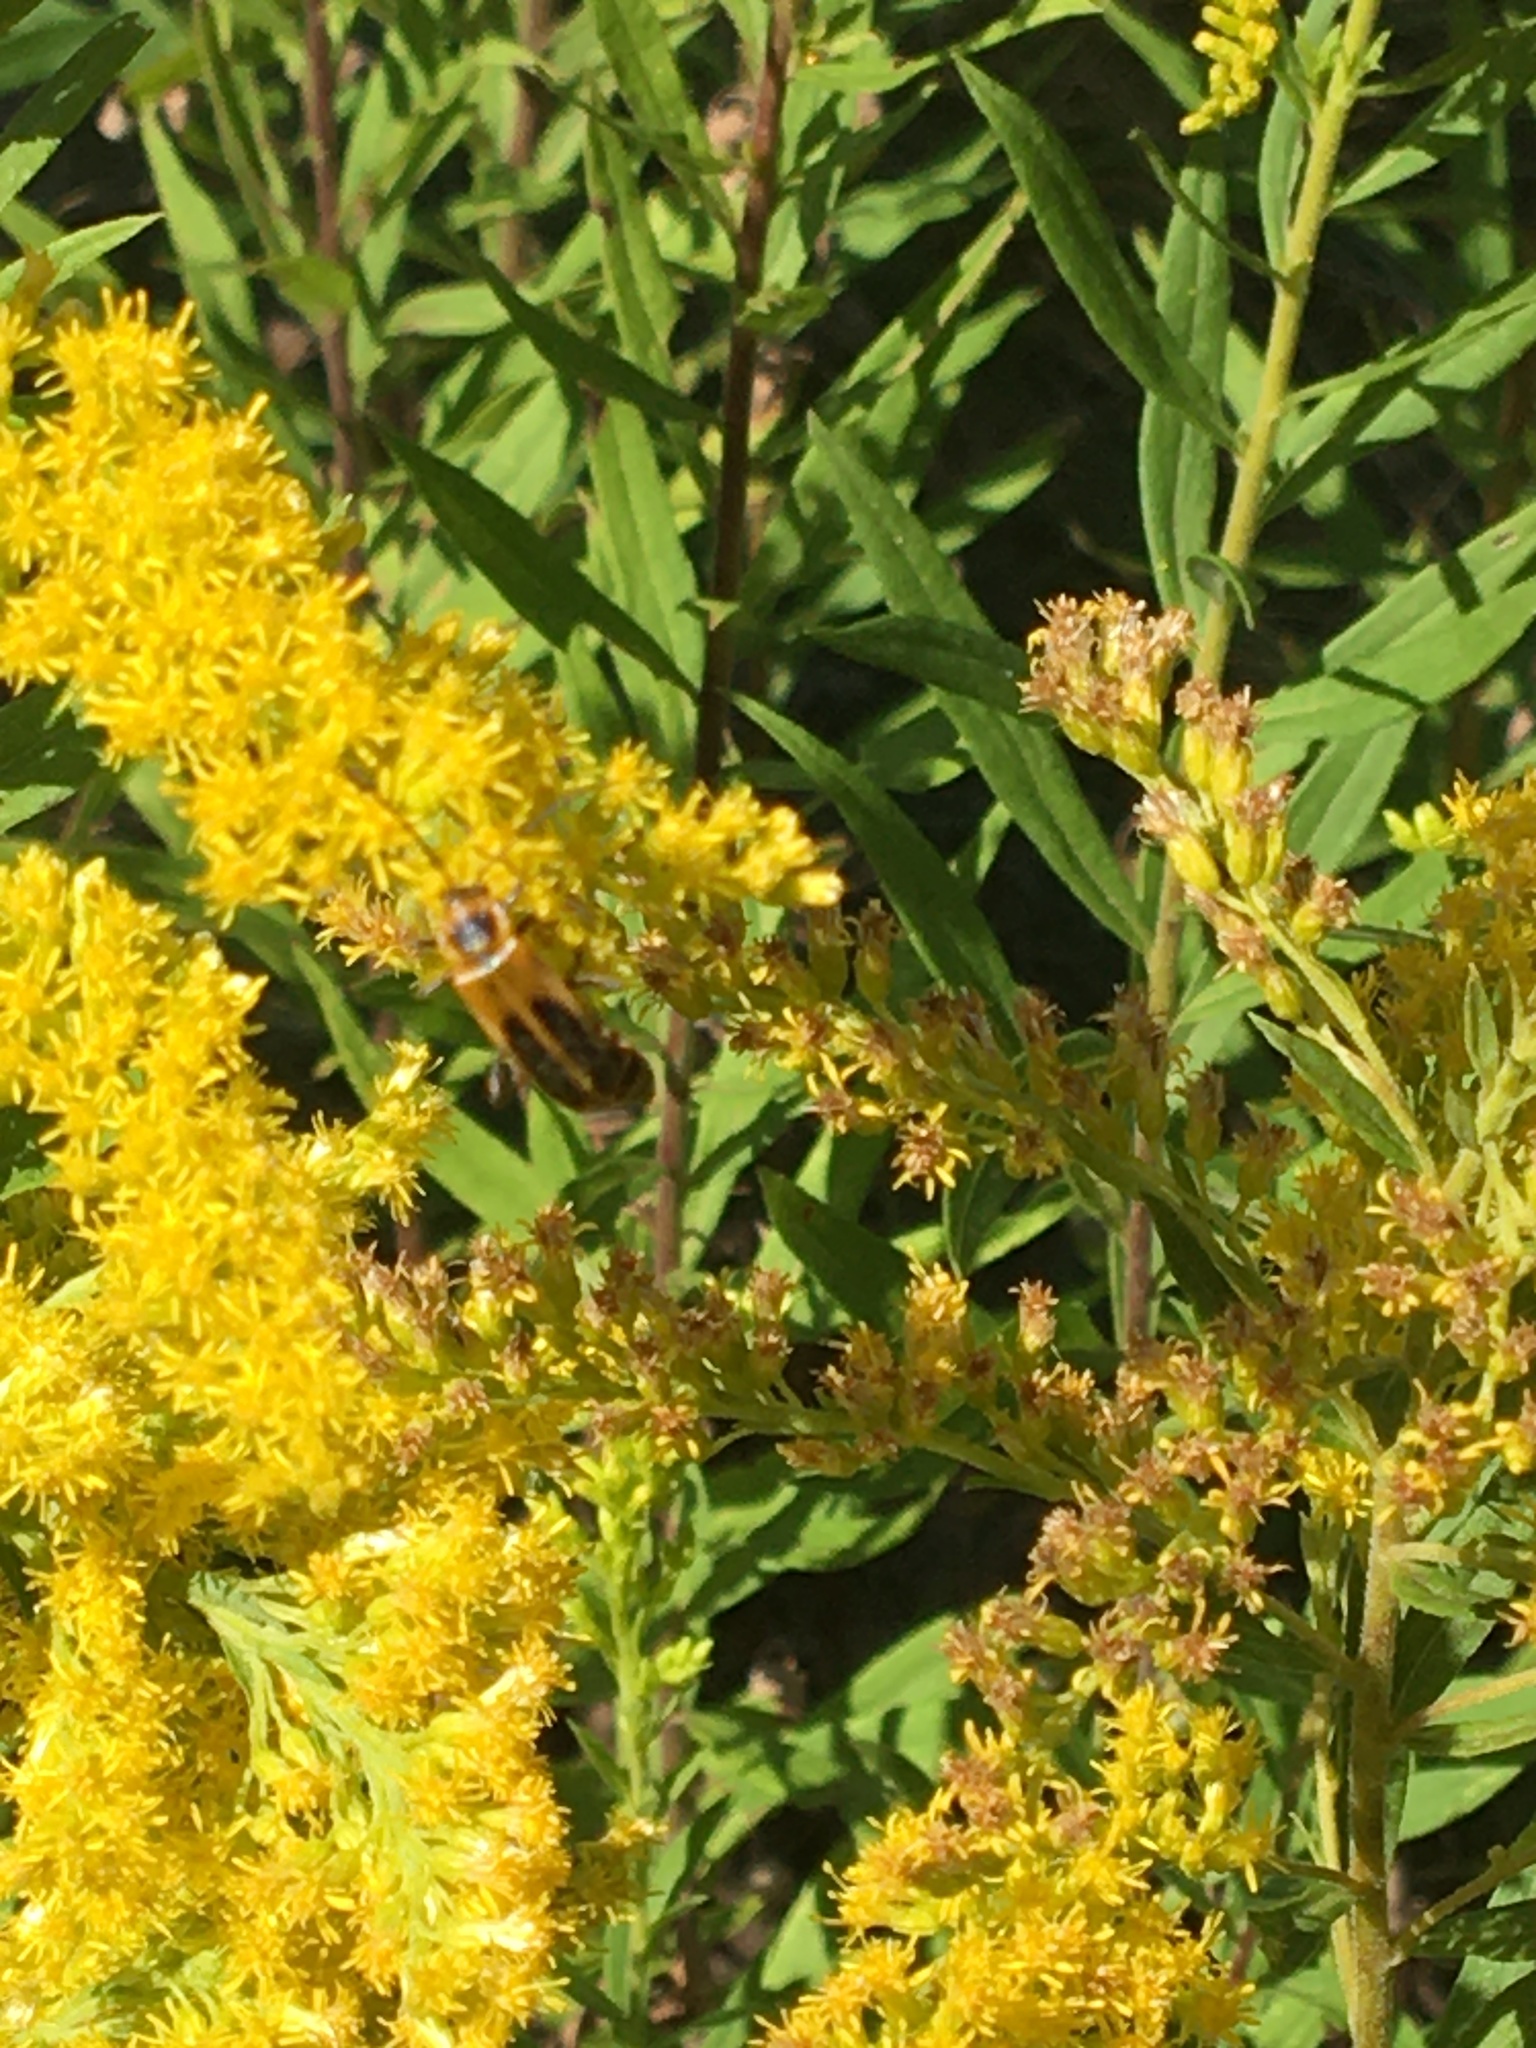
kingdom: Animalia
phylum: Arthropoda
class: Insecta
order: Coleoptera
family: Cantharidae
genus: Chauliognathus
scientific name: Chauliognathus pensylvanicus
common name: Goldenrod soldier beetle
